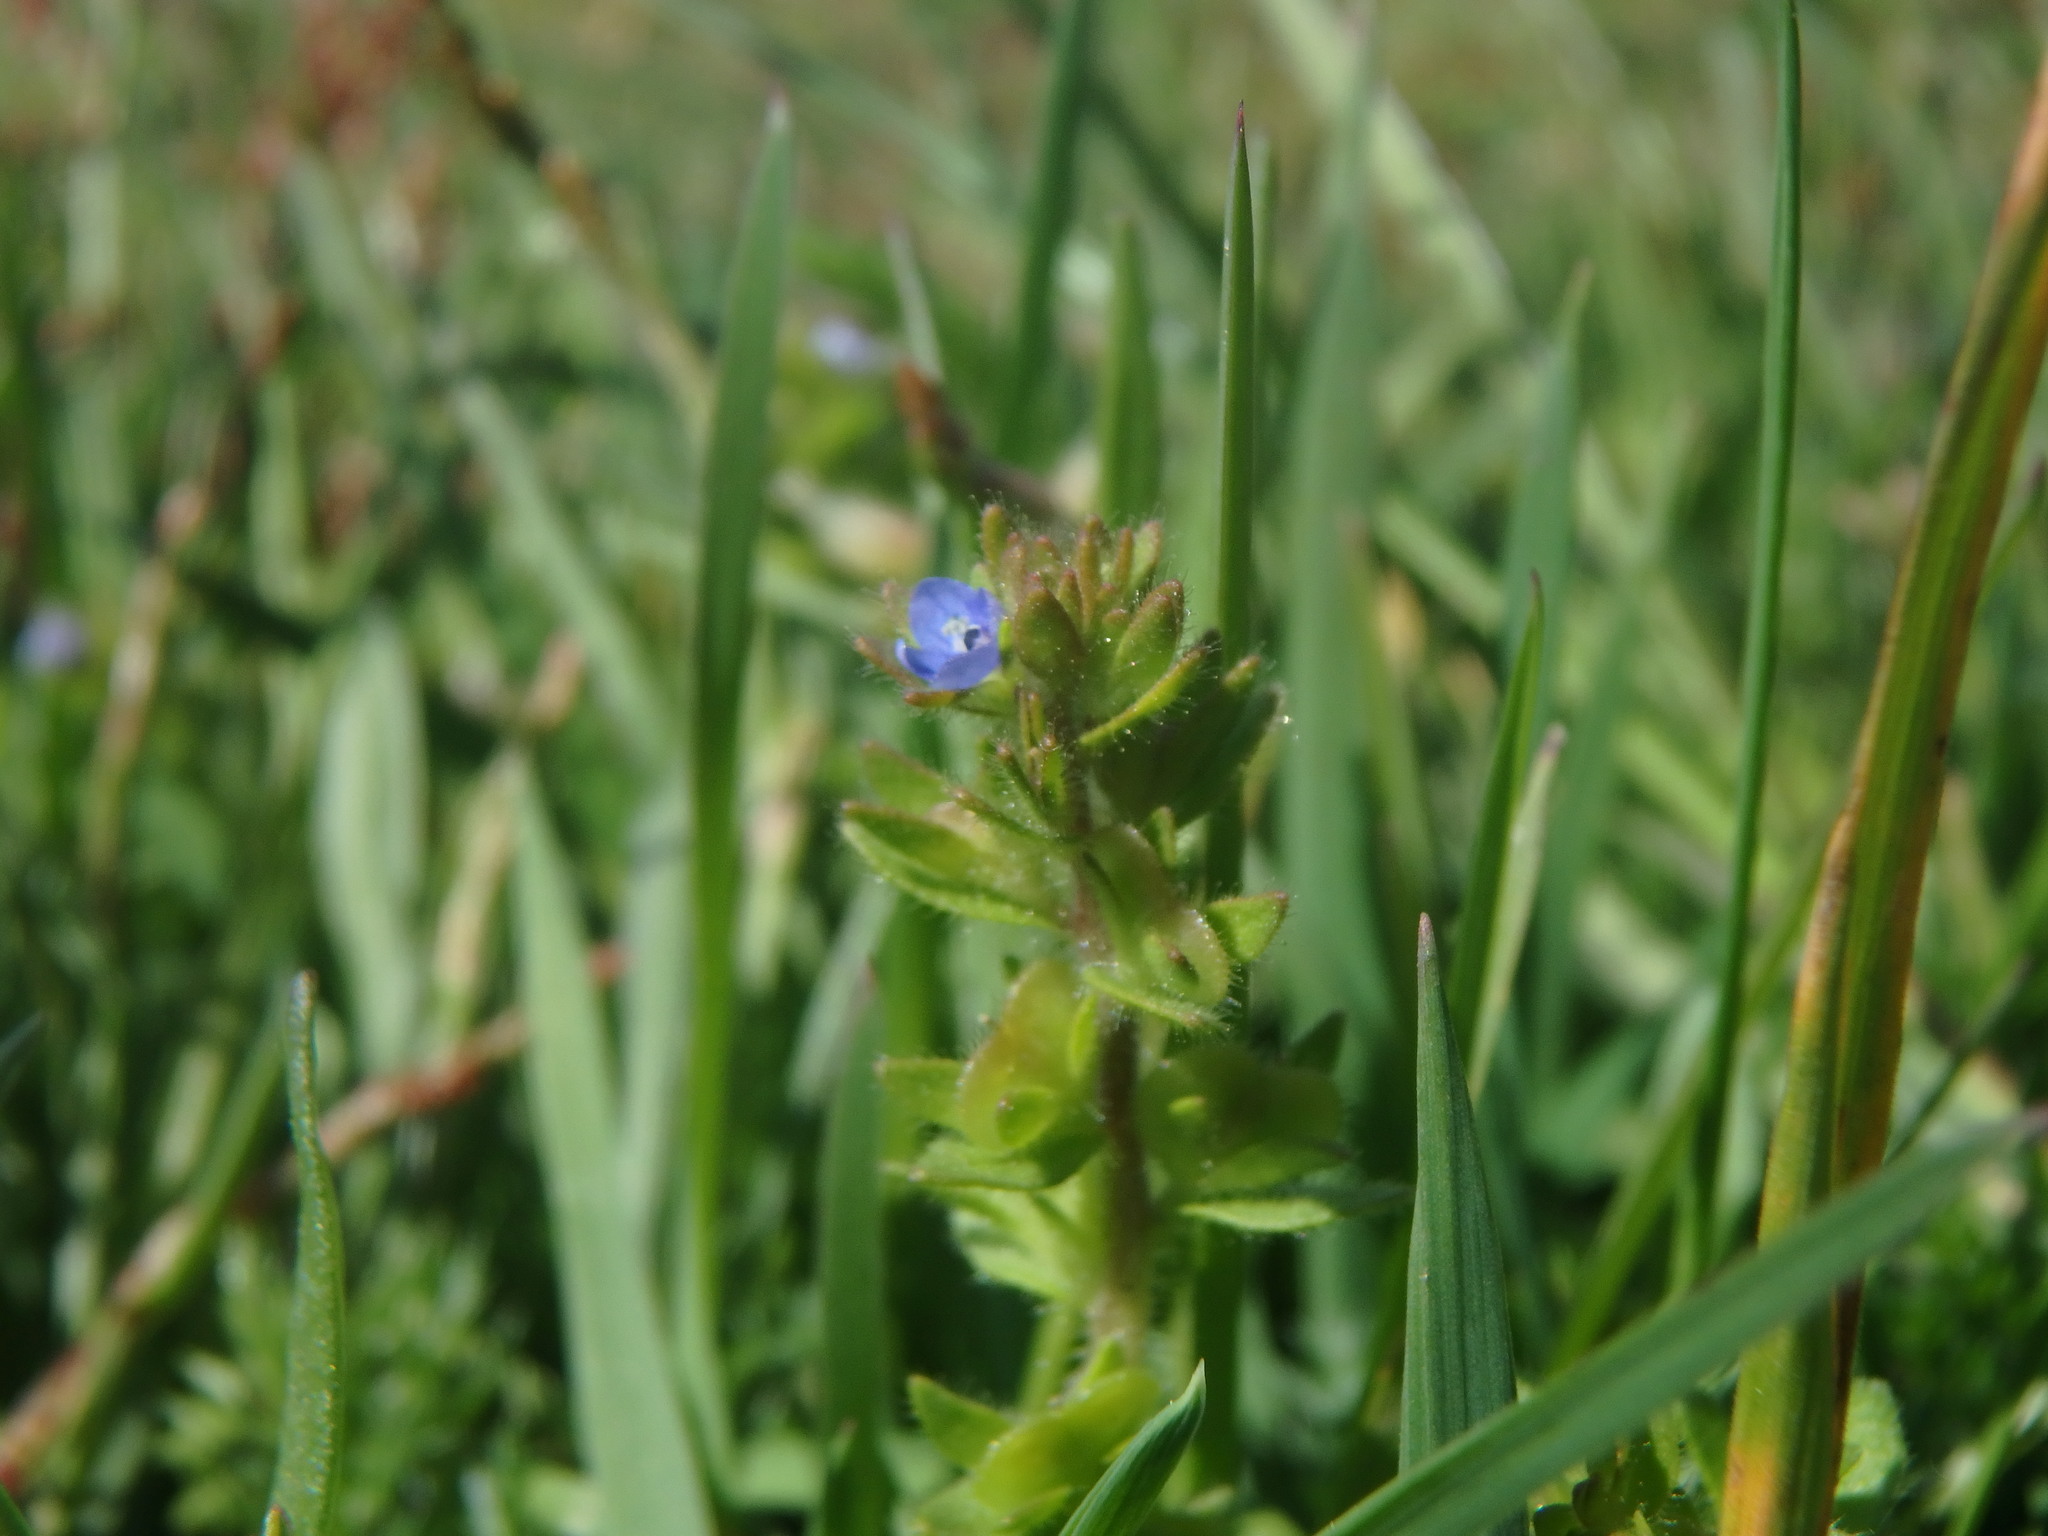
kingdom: Plantae
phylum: Tracheophyta
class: Magnoliopsida
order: Lamiales
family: Plantaginaceae
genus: Veronica
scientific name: Veronica arvensis
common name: Corn speedwell
